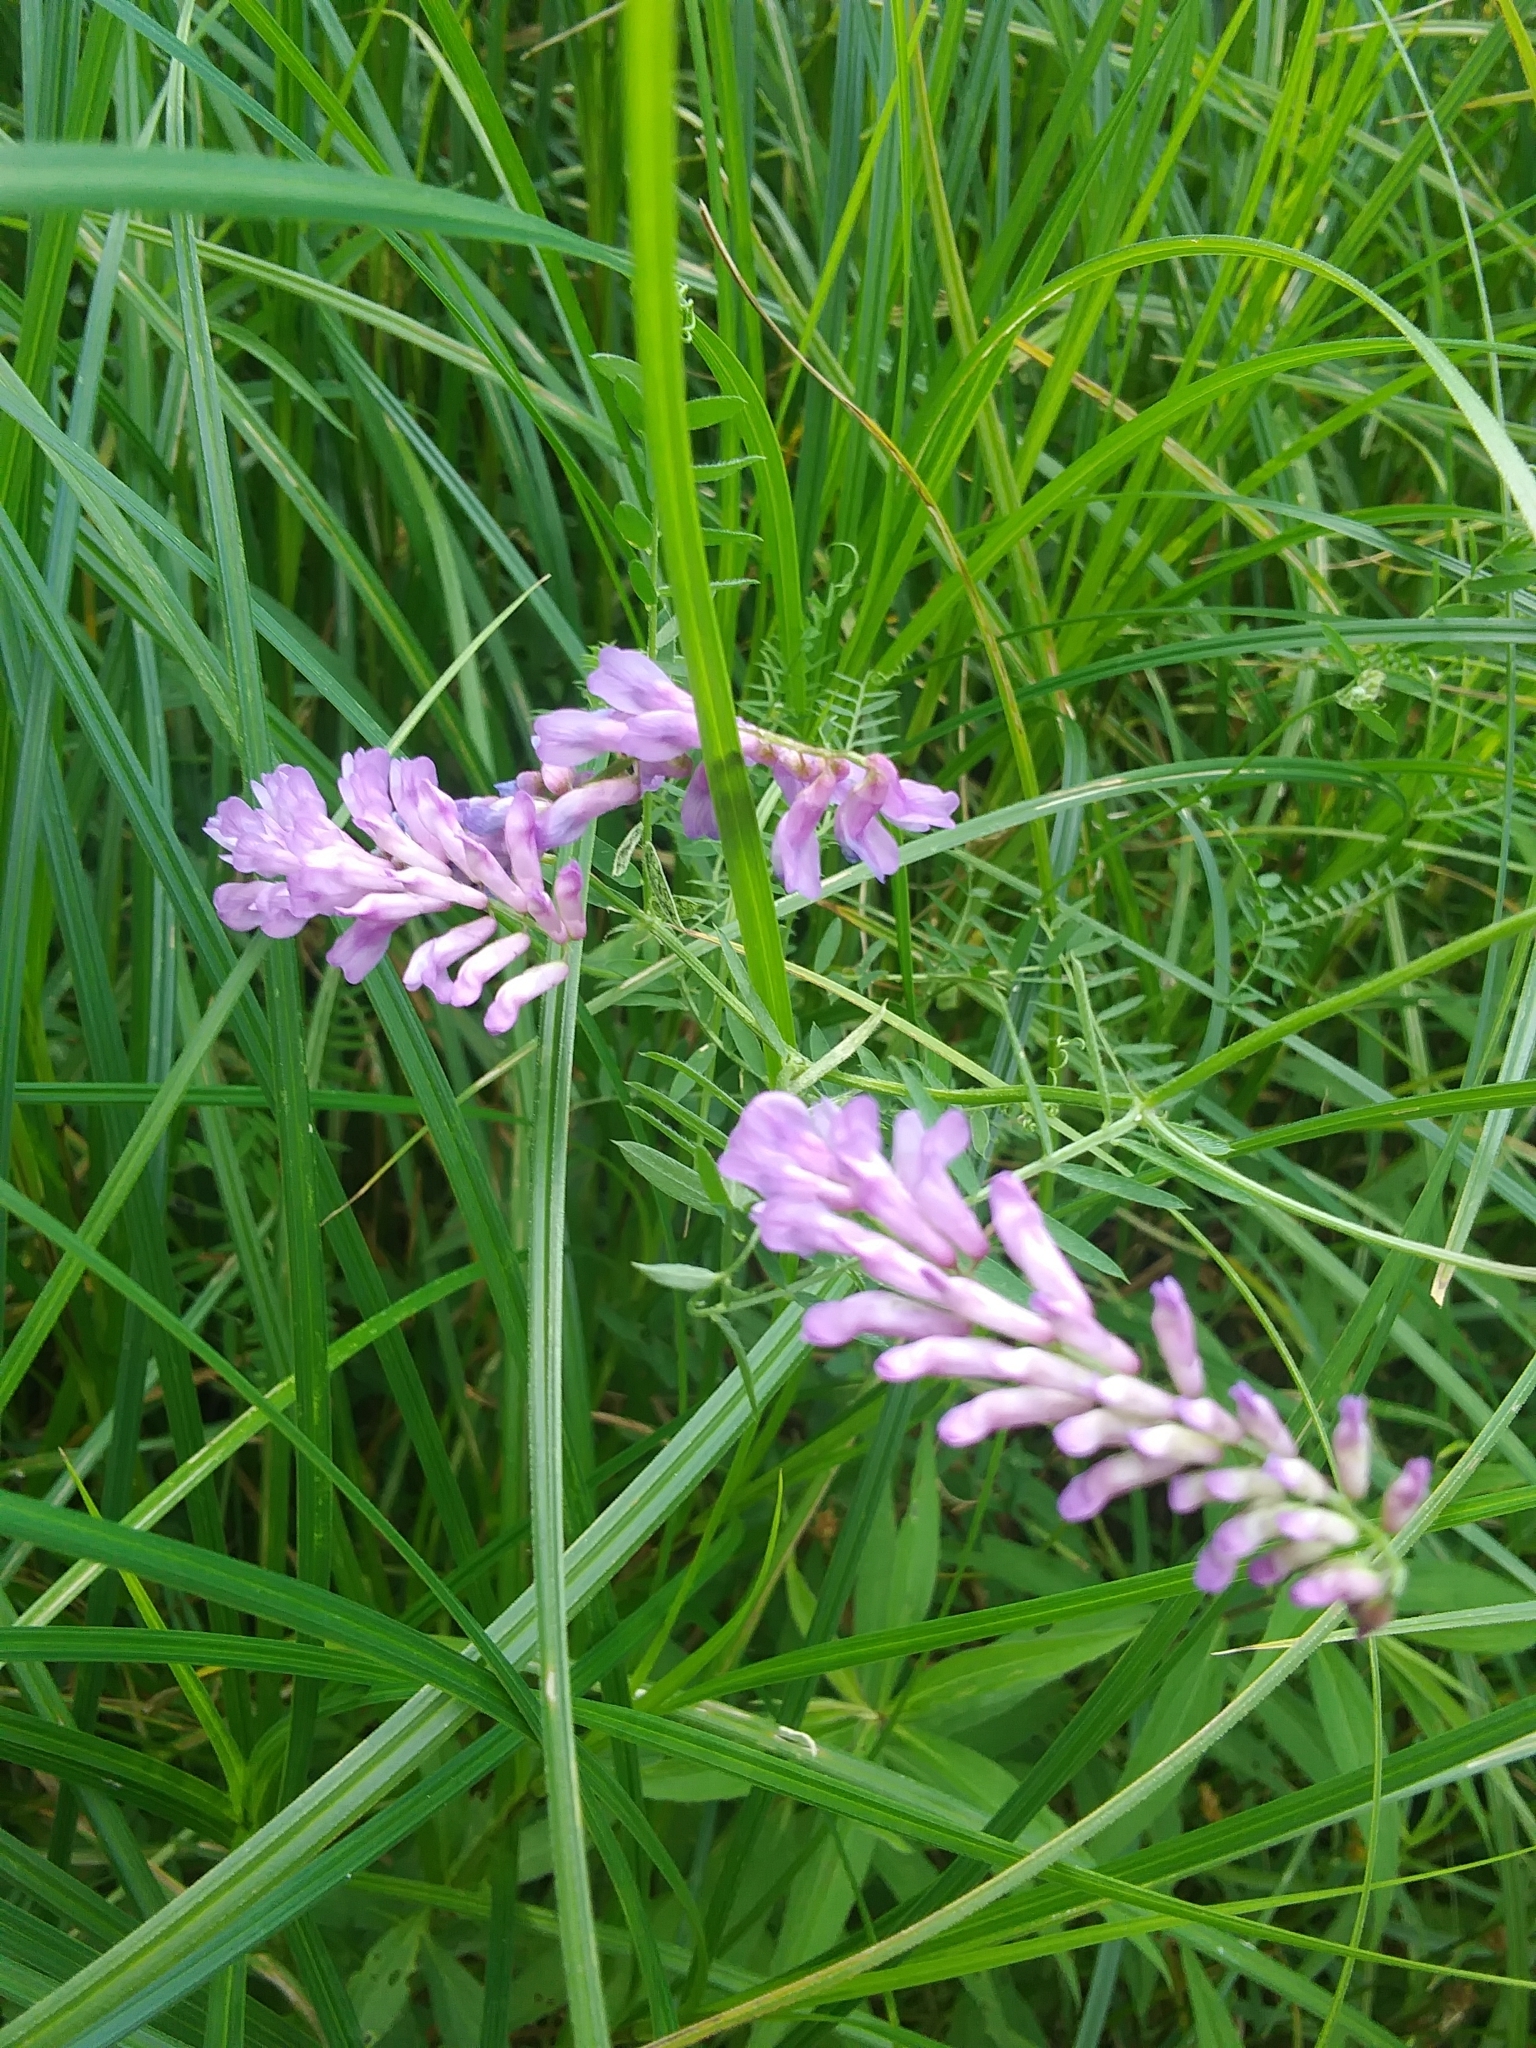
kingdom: Plantae
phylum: Tracheophyta
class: Magnoliopsida
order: Fabales
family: Fabaceae
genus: Vicia
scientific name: Vicia cracca
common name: Bird vetch
